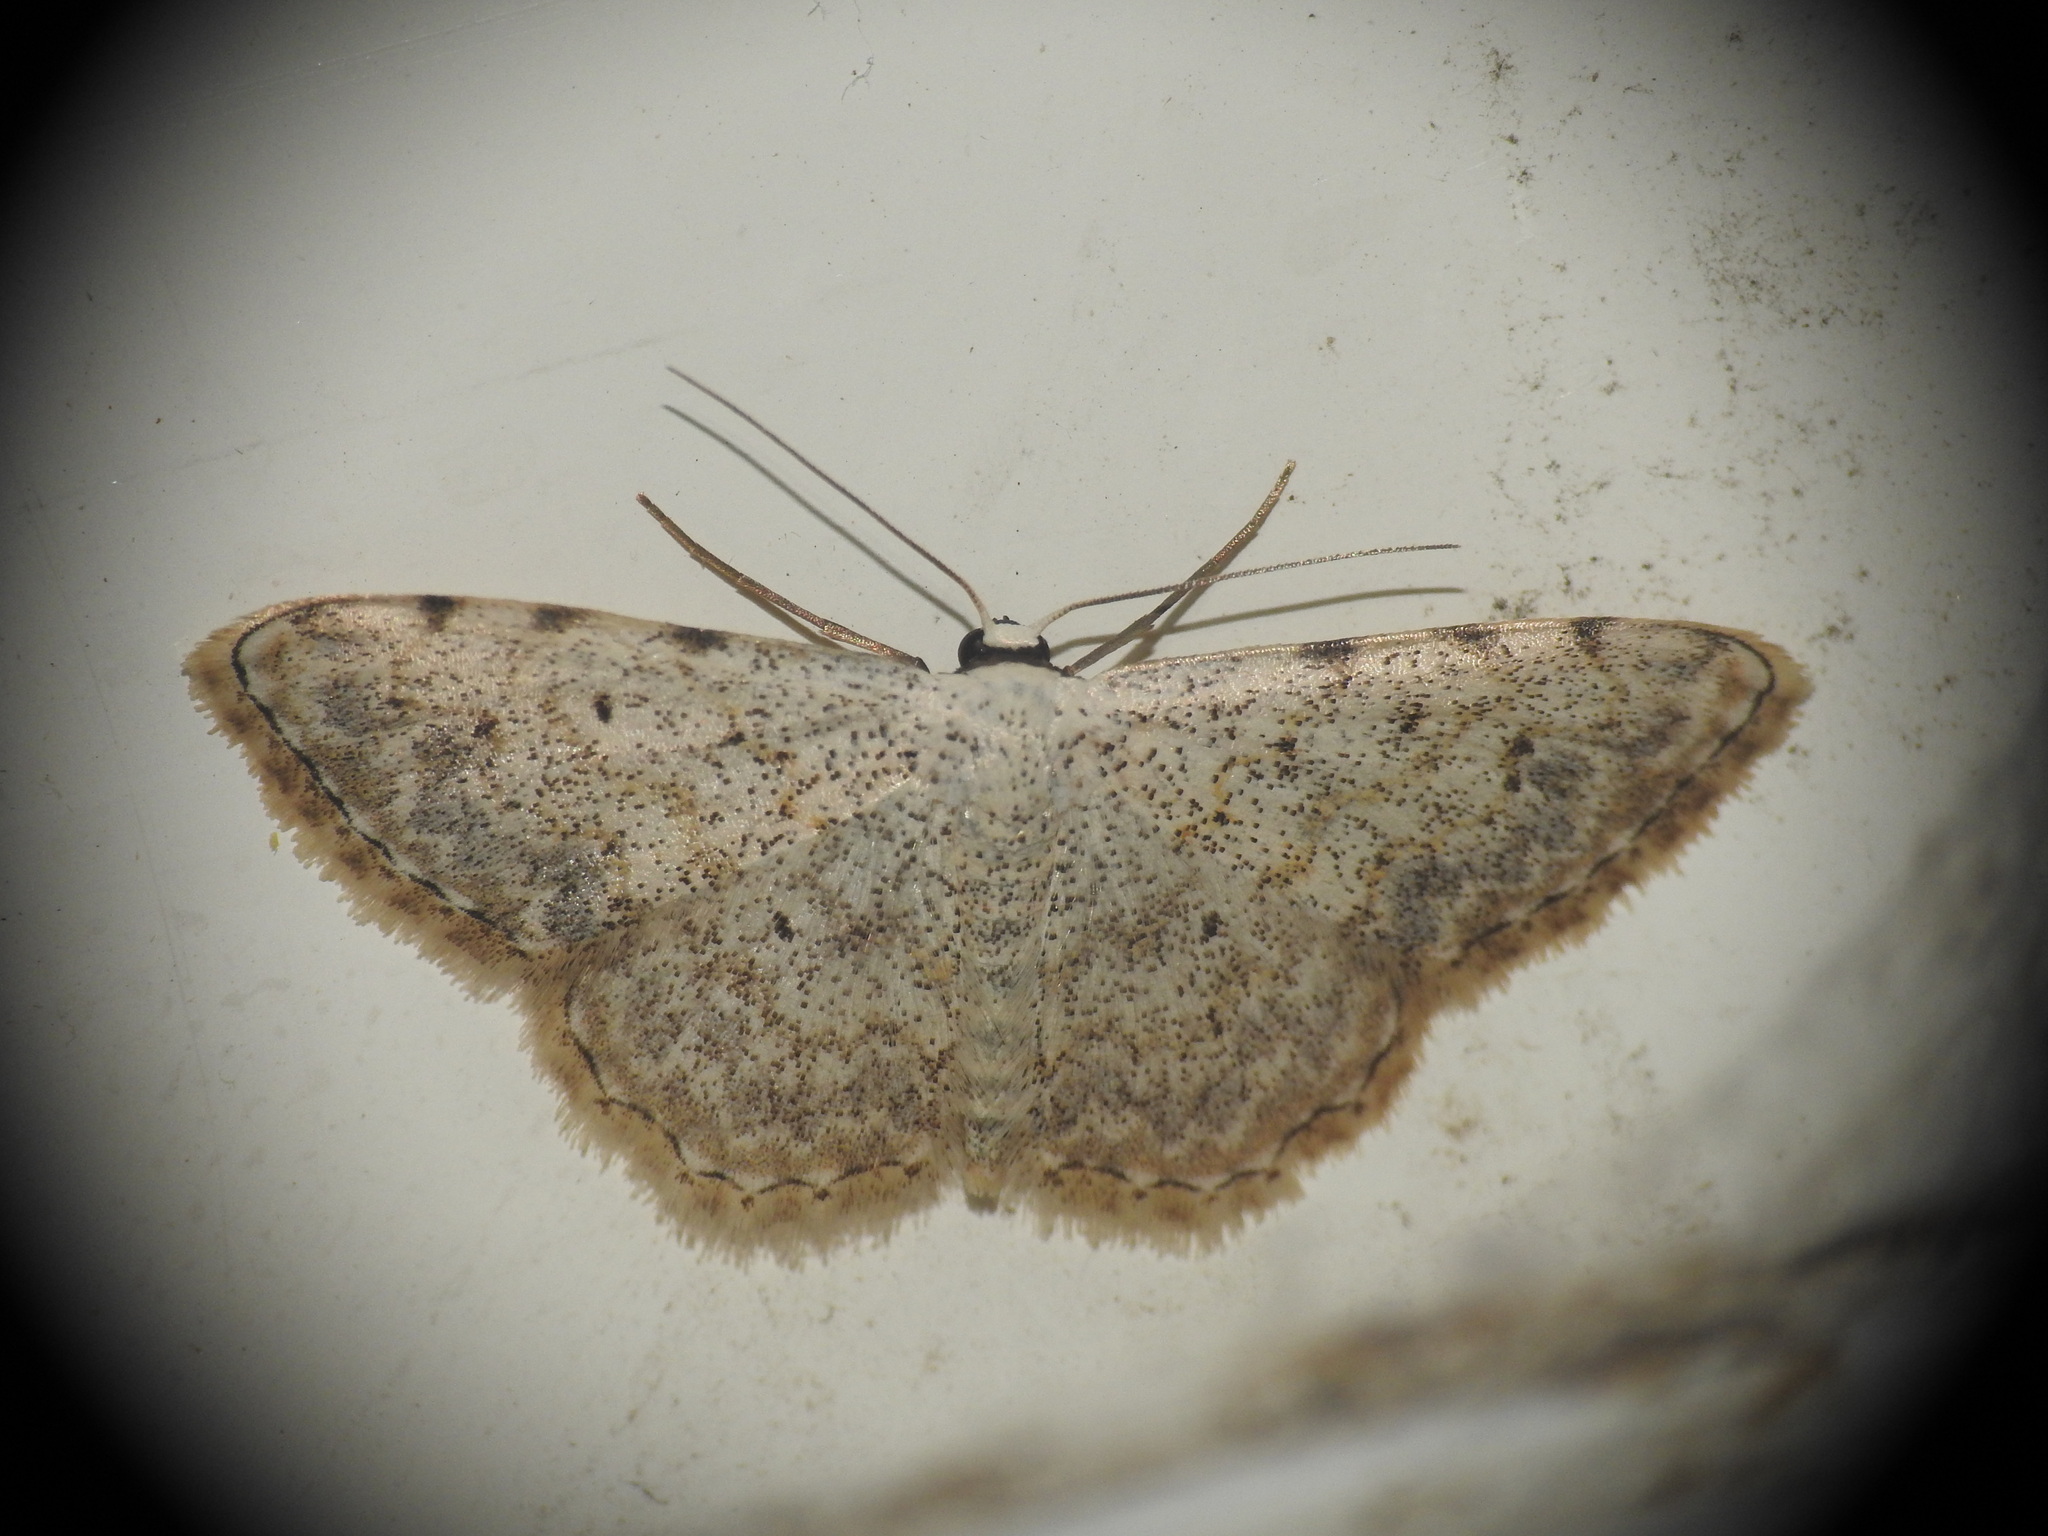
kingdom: Animalia
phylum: Arthropoda
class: Insecta
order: Lepidoptera
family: Geometridae
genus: Scopula
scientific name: Scopula submutata
